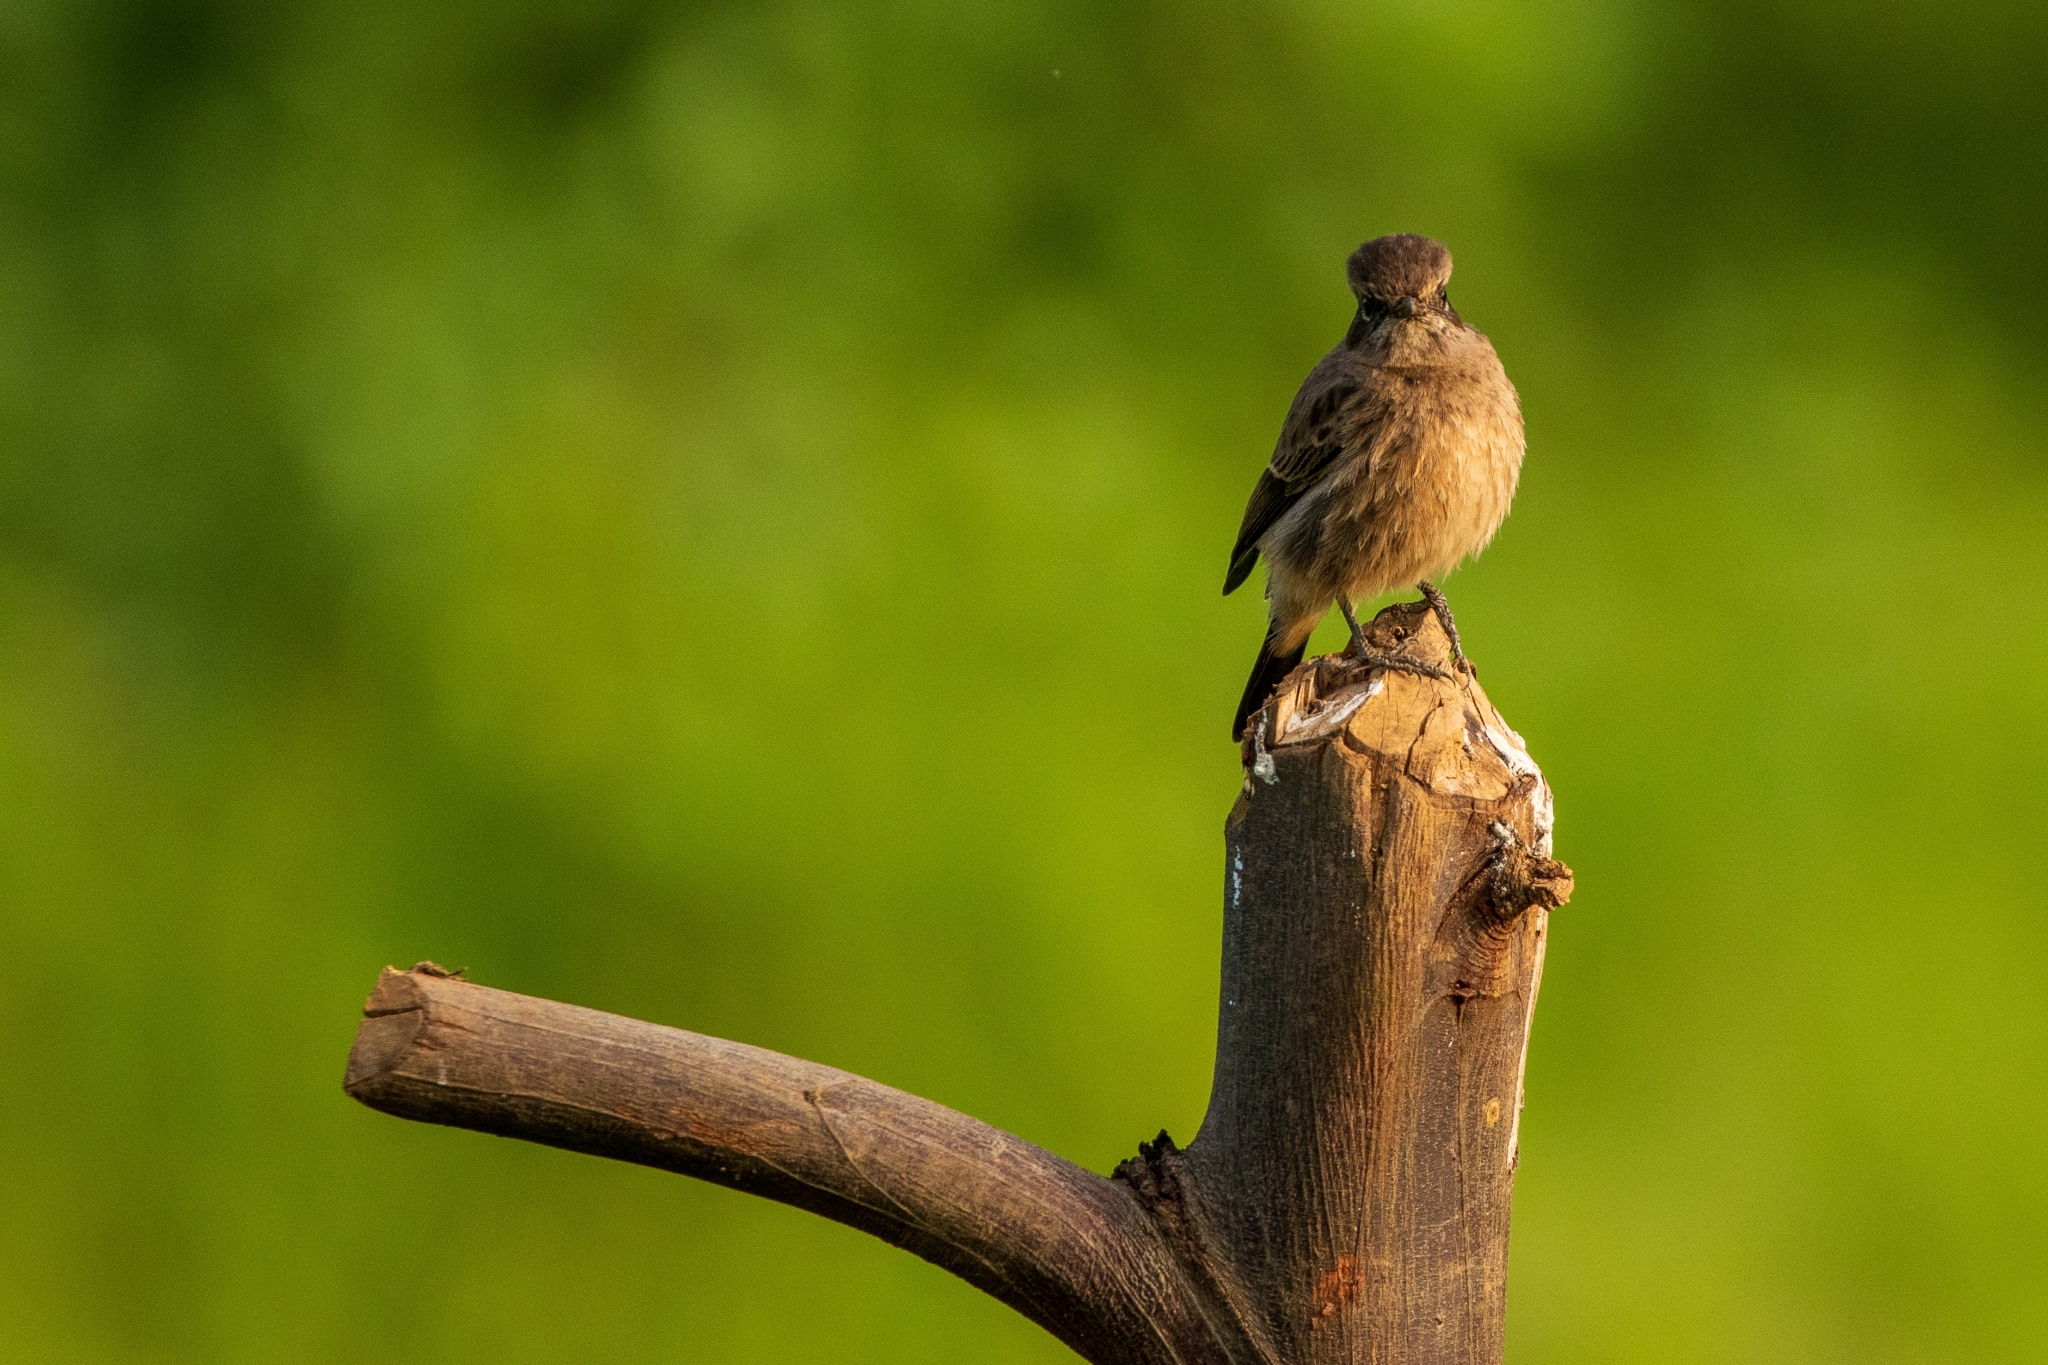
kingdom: Animalia
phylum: Chordata
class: Aves
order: Passeriformes
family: Muscicapidae
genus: Saxicola
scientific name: Saxicola caprata
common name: Pied bush chat
